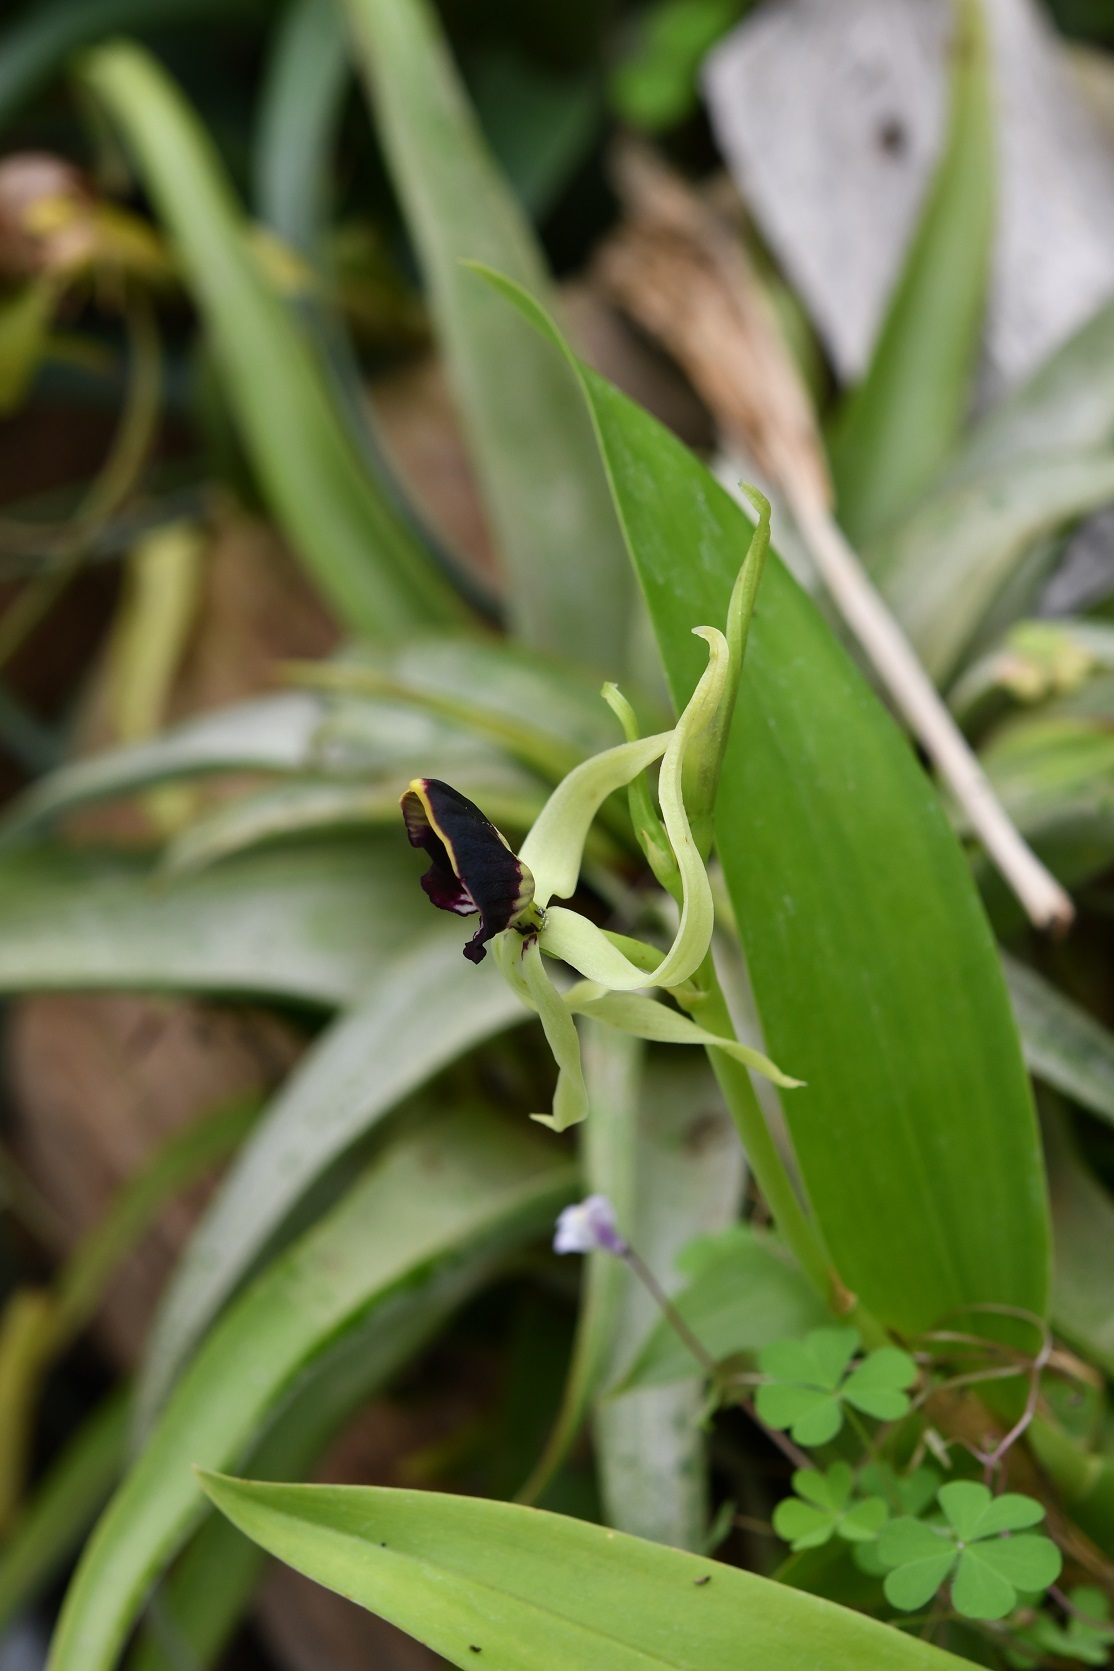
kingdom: Plantae
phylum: Tracheophyta
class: Liliopsida
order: Asparagales
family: Orchidaceae
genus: Prosthechea
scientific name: Prosthechea cochleata
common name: Clamshell orchid
